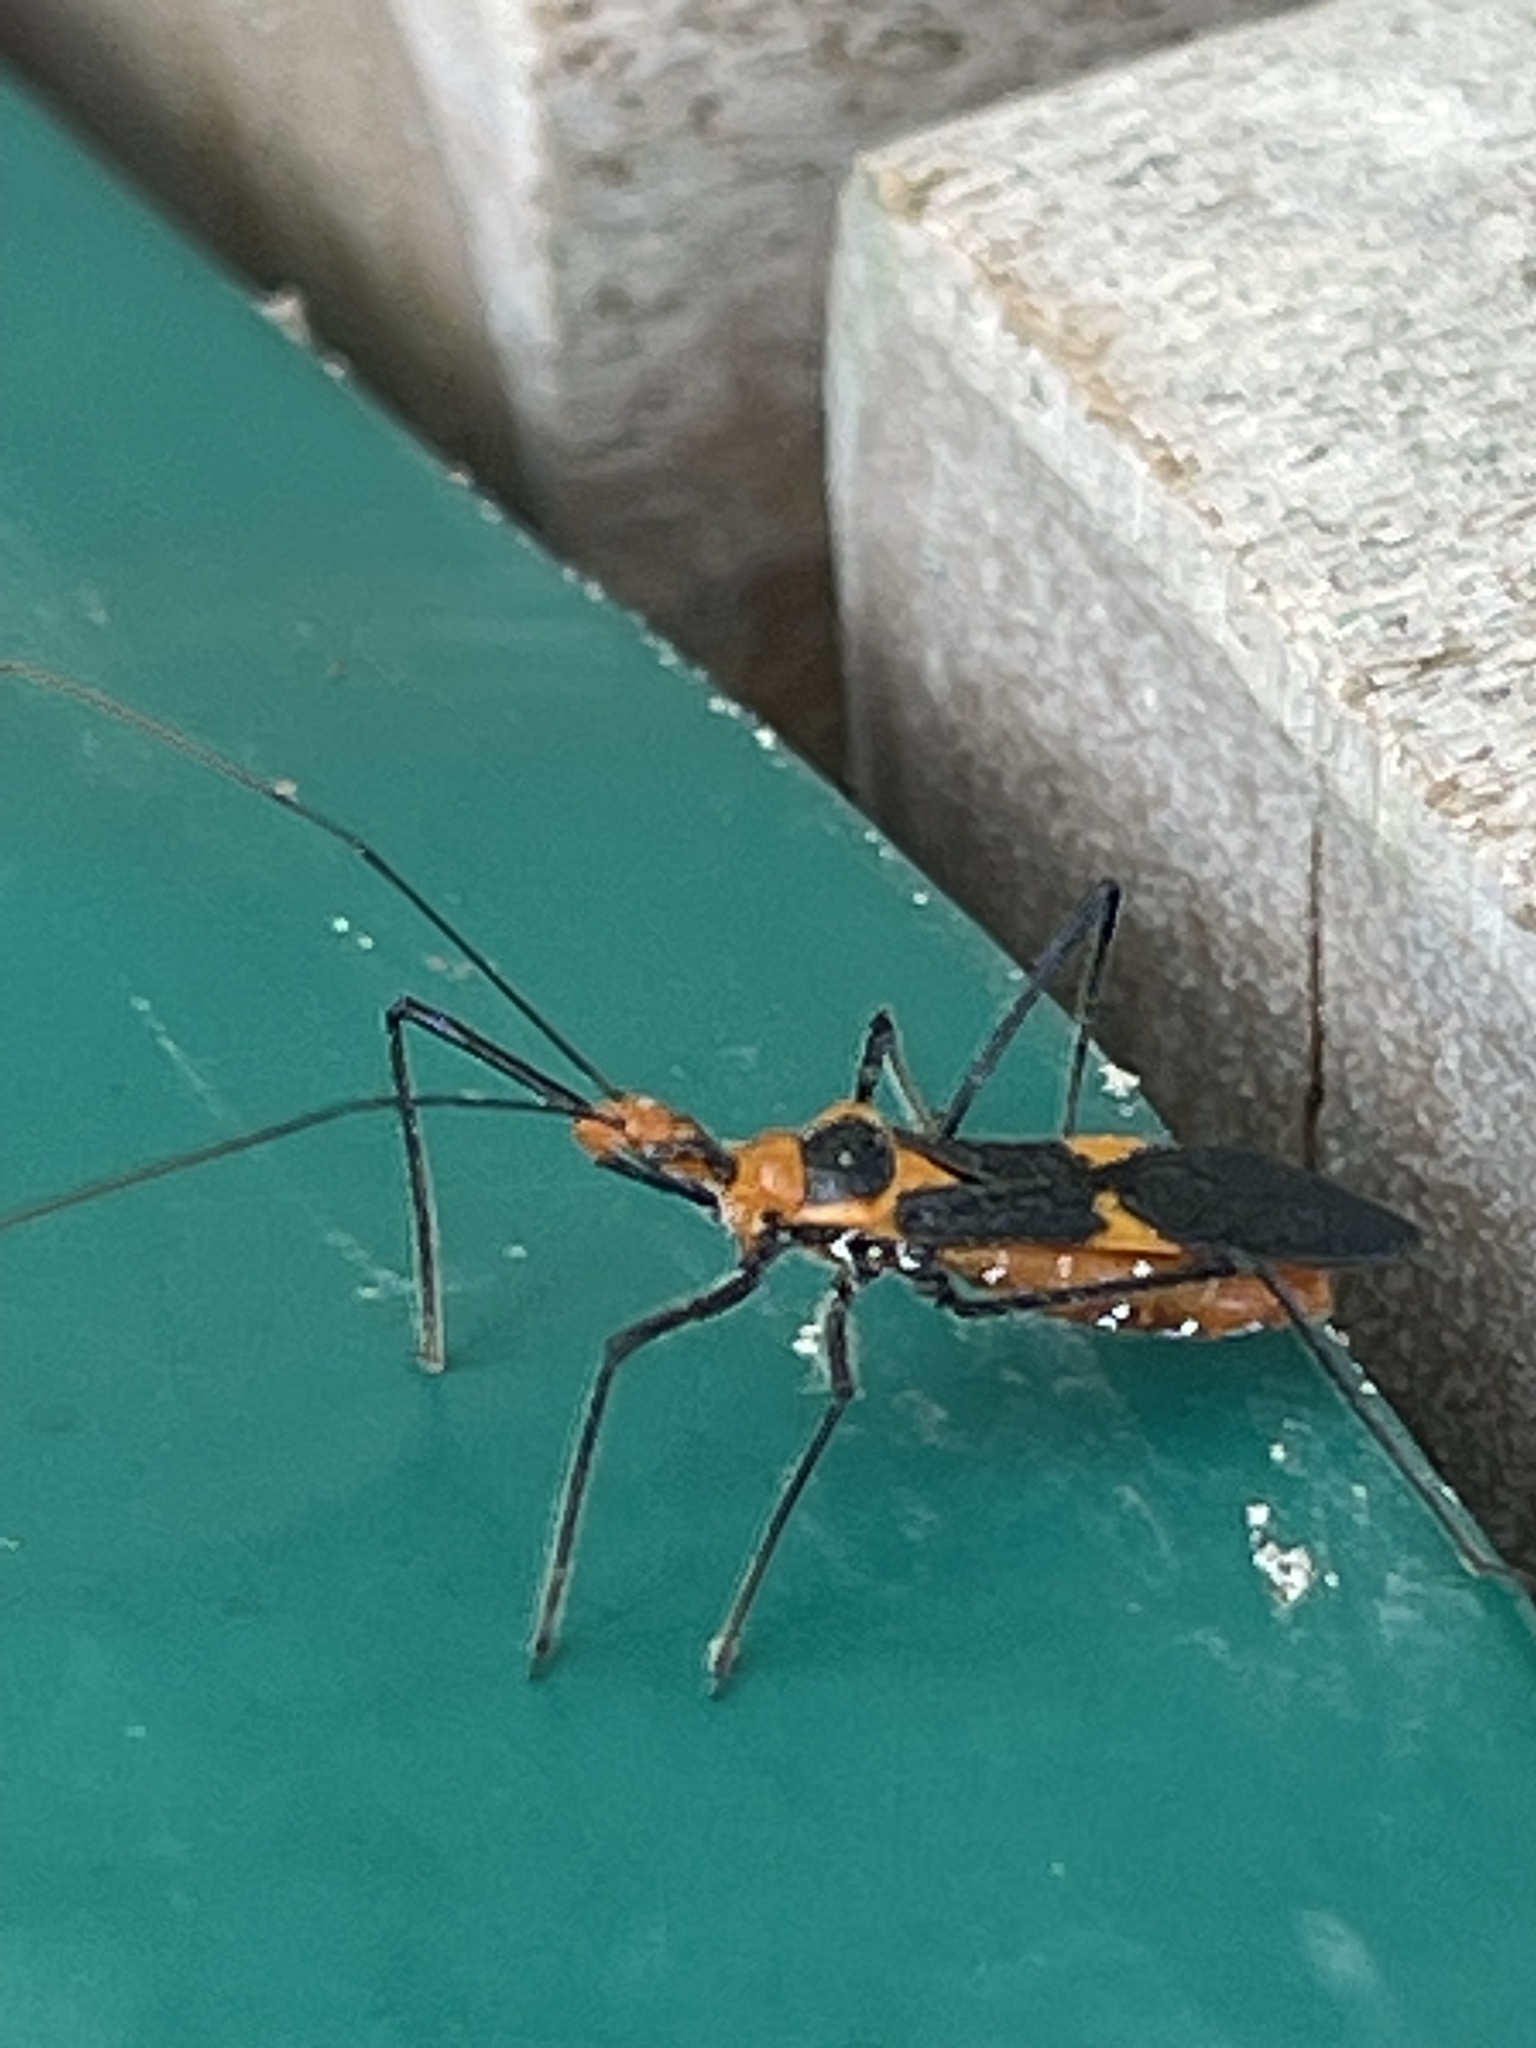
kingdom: Animalia
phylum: Arthropoda
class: Insecta
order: Hemiptera
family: Reduviidae
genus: Zelus
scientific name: Zelus longipes
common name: Milkweed assassin bug
